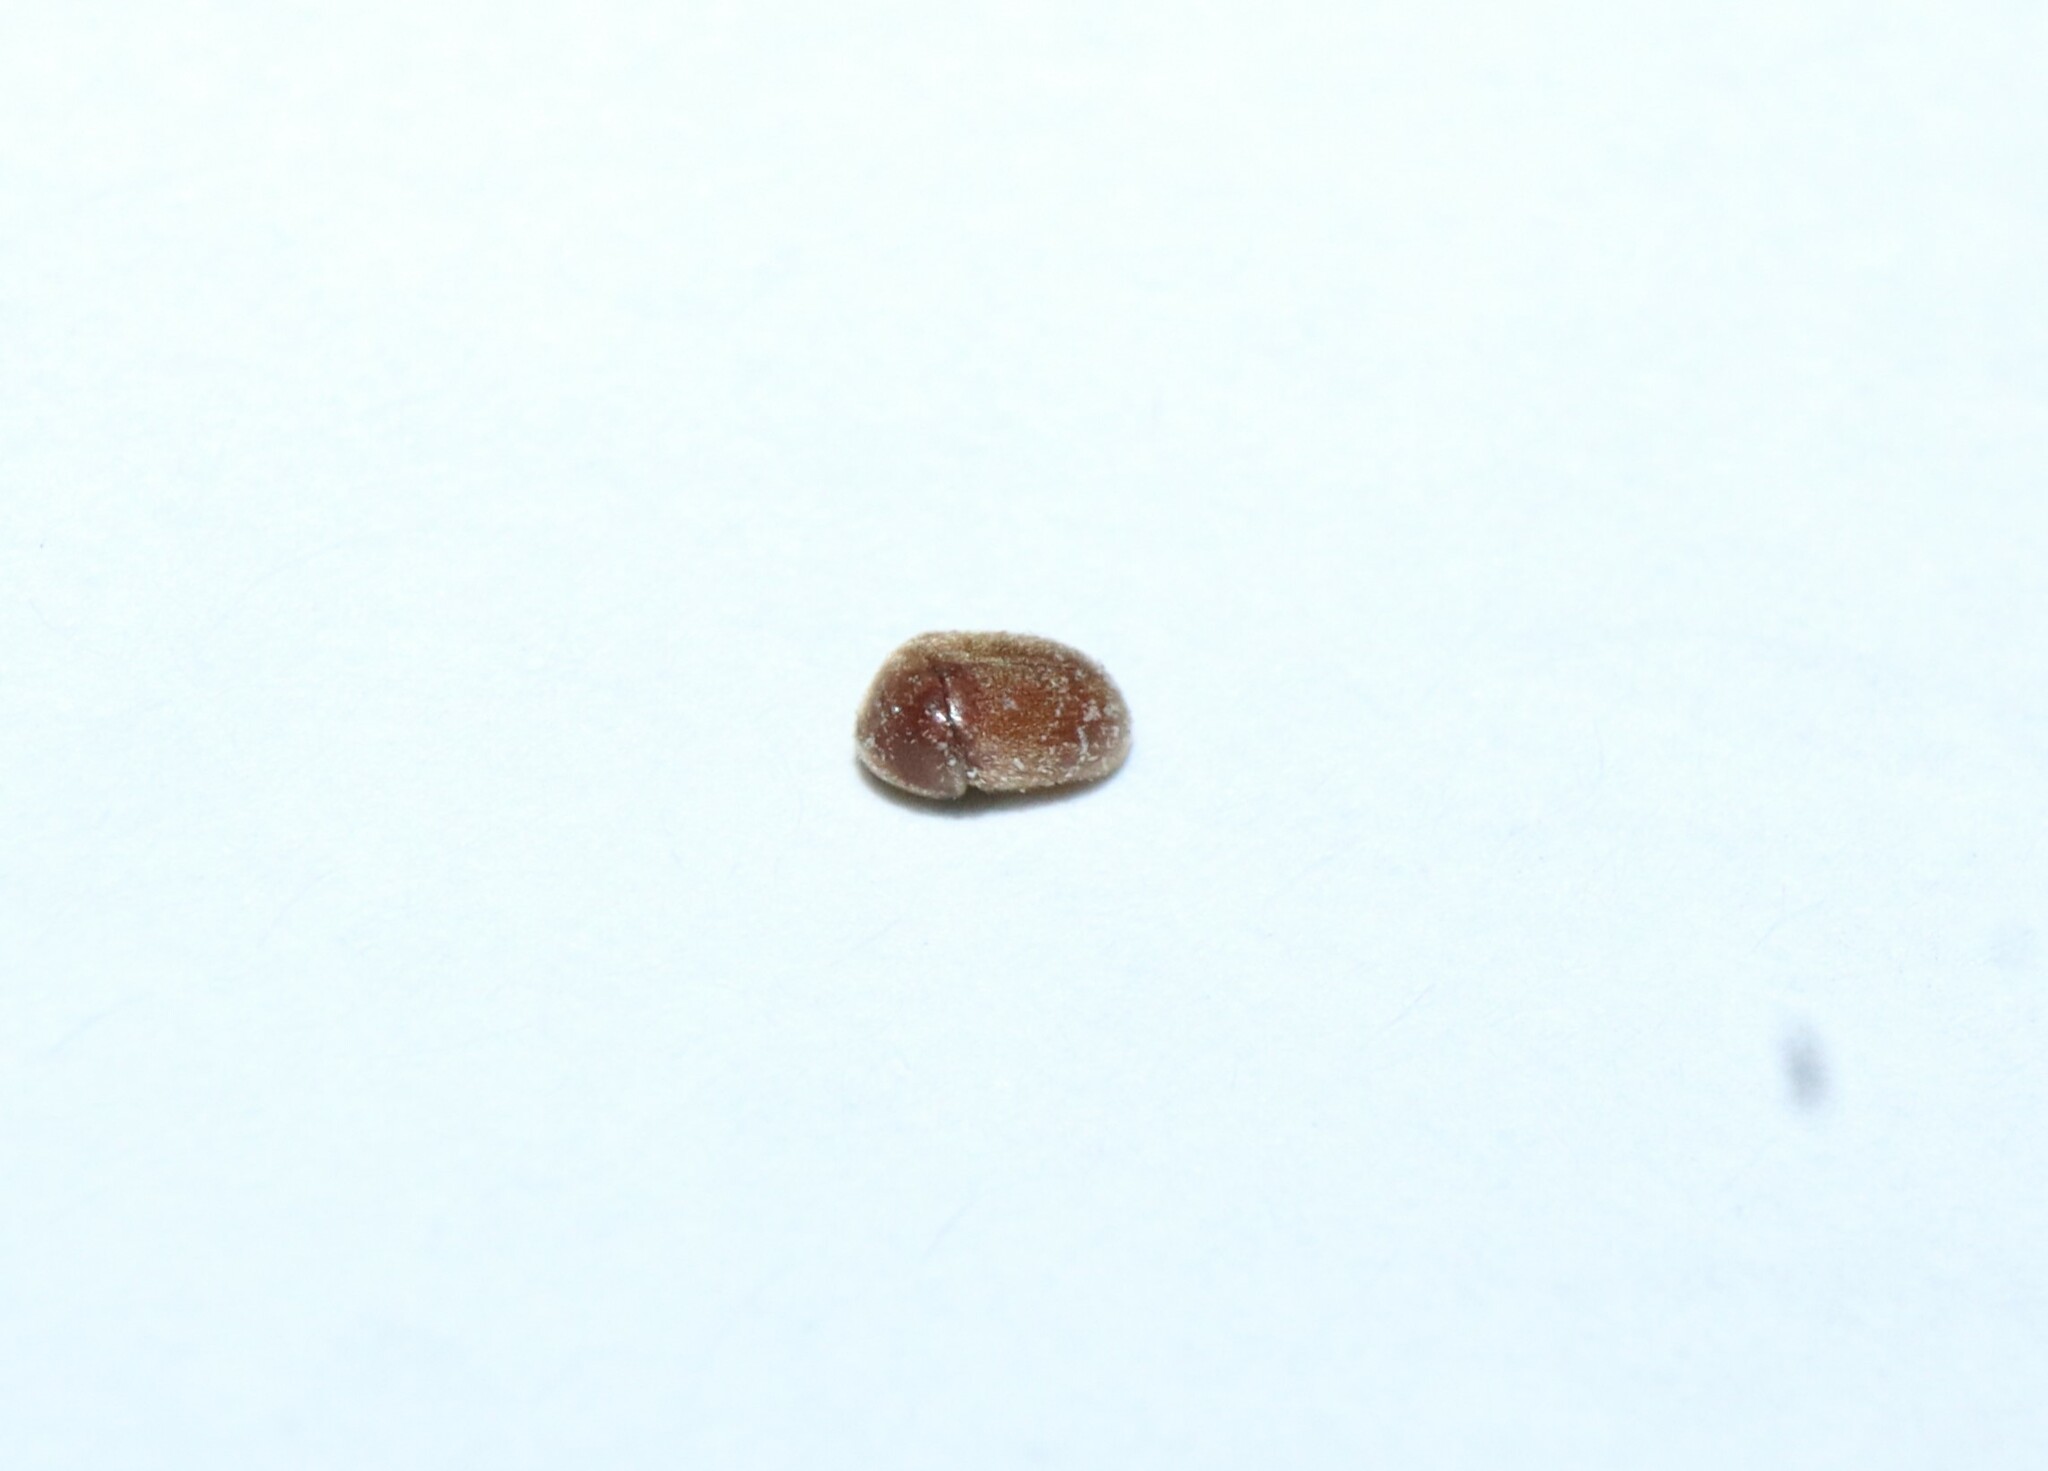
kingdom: Animalia
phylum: Arthropoda
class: Insecta
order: Coleoptera
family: Anobiidae
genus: Lasioderma
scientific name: Lasioderma serricorne
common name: Cigarette beetle
